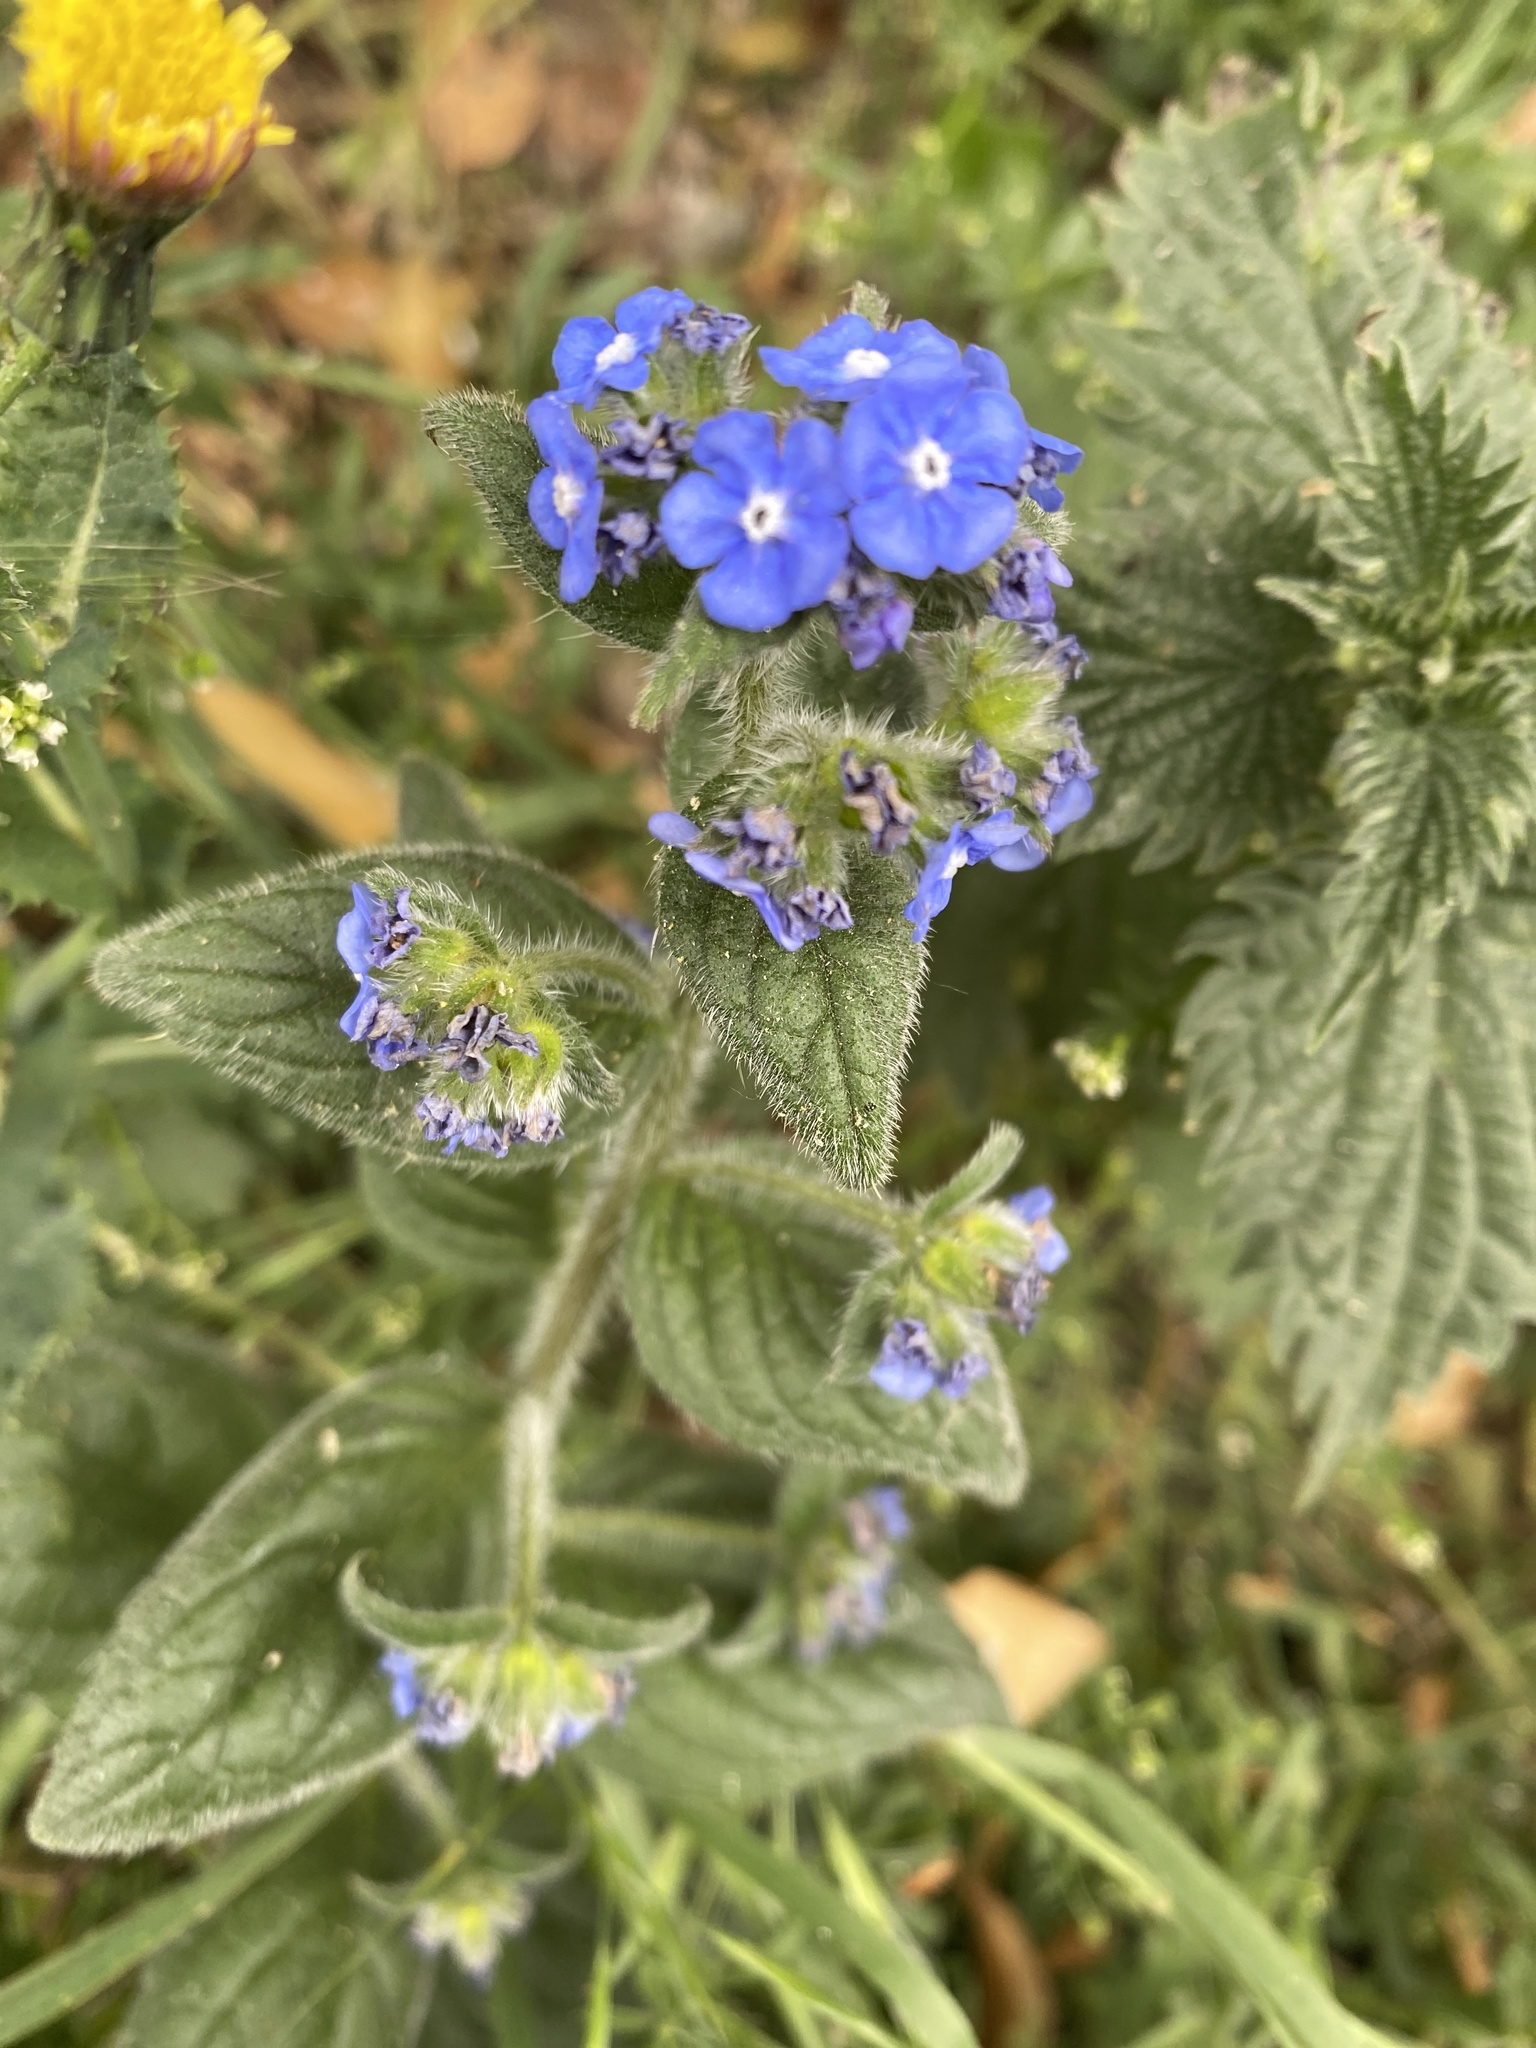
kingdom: Plantae
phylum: Tracheophyta
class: Magnoliopsida
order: Boraginales
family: Boraginaceae
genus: Pentaglottis
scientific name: Pentaglottis sempervirens
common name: Green alkanet
